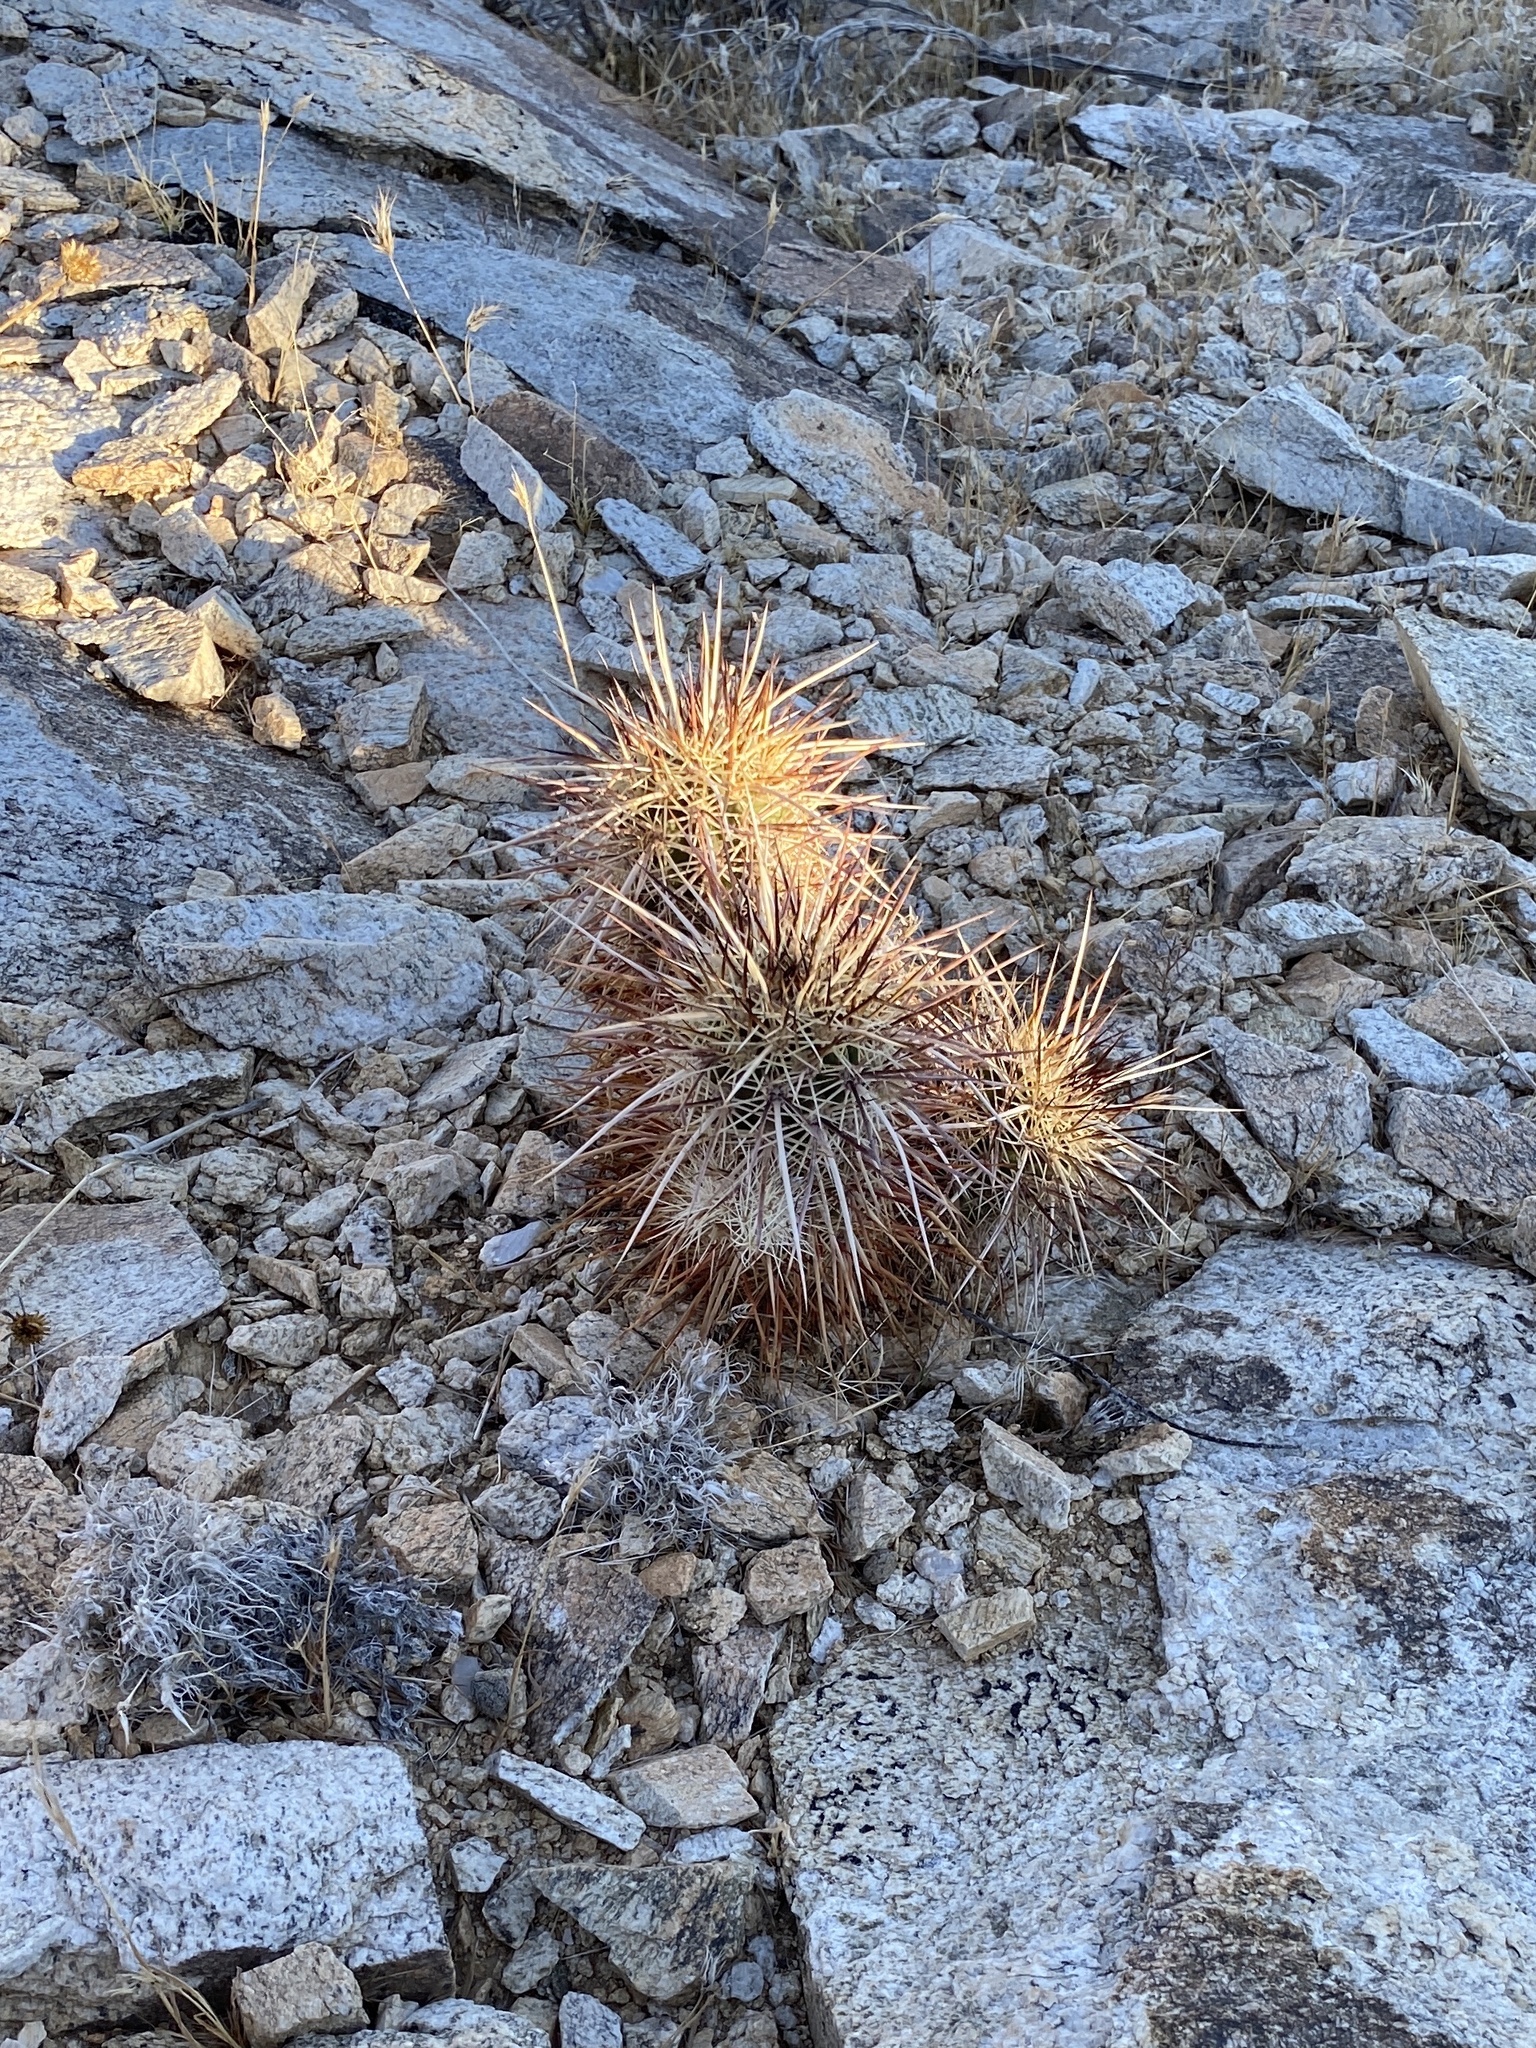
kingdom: Plantae
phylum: Tracheophyta
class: Magnoliopsida
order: Caryophyllales
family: Cactaceae
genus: Echinocereus
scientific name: Echinocereus engelmannii
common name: Engelmann's hedgehog cactus
